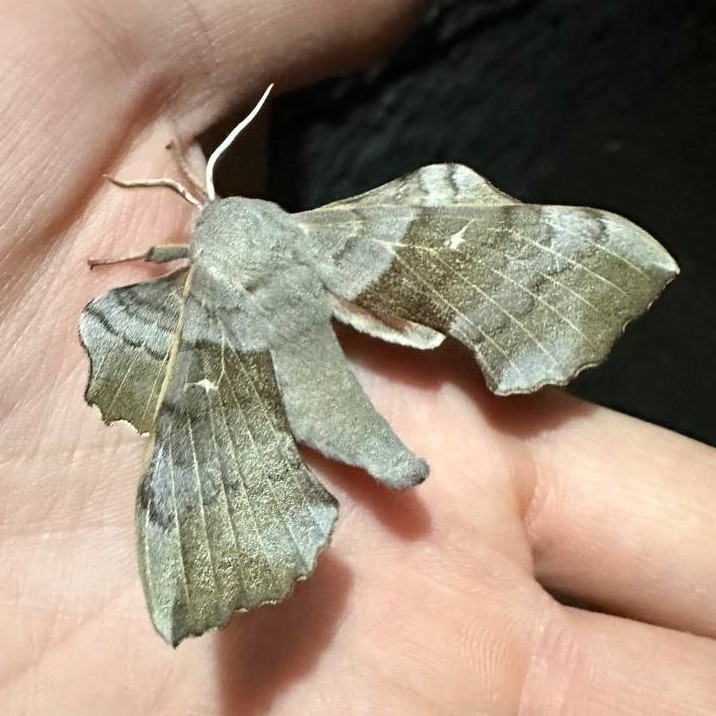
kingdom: Animalia
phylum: Arthropoda
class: Insecta
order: Lepidoptera
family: Sphingidae
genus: Laothoe
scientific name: Laothoe populi
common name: Poplar hawk-moth
